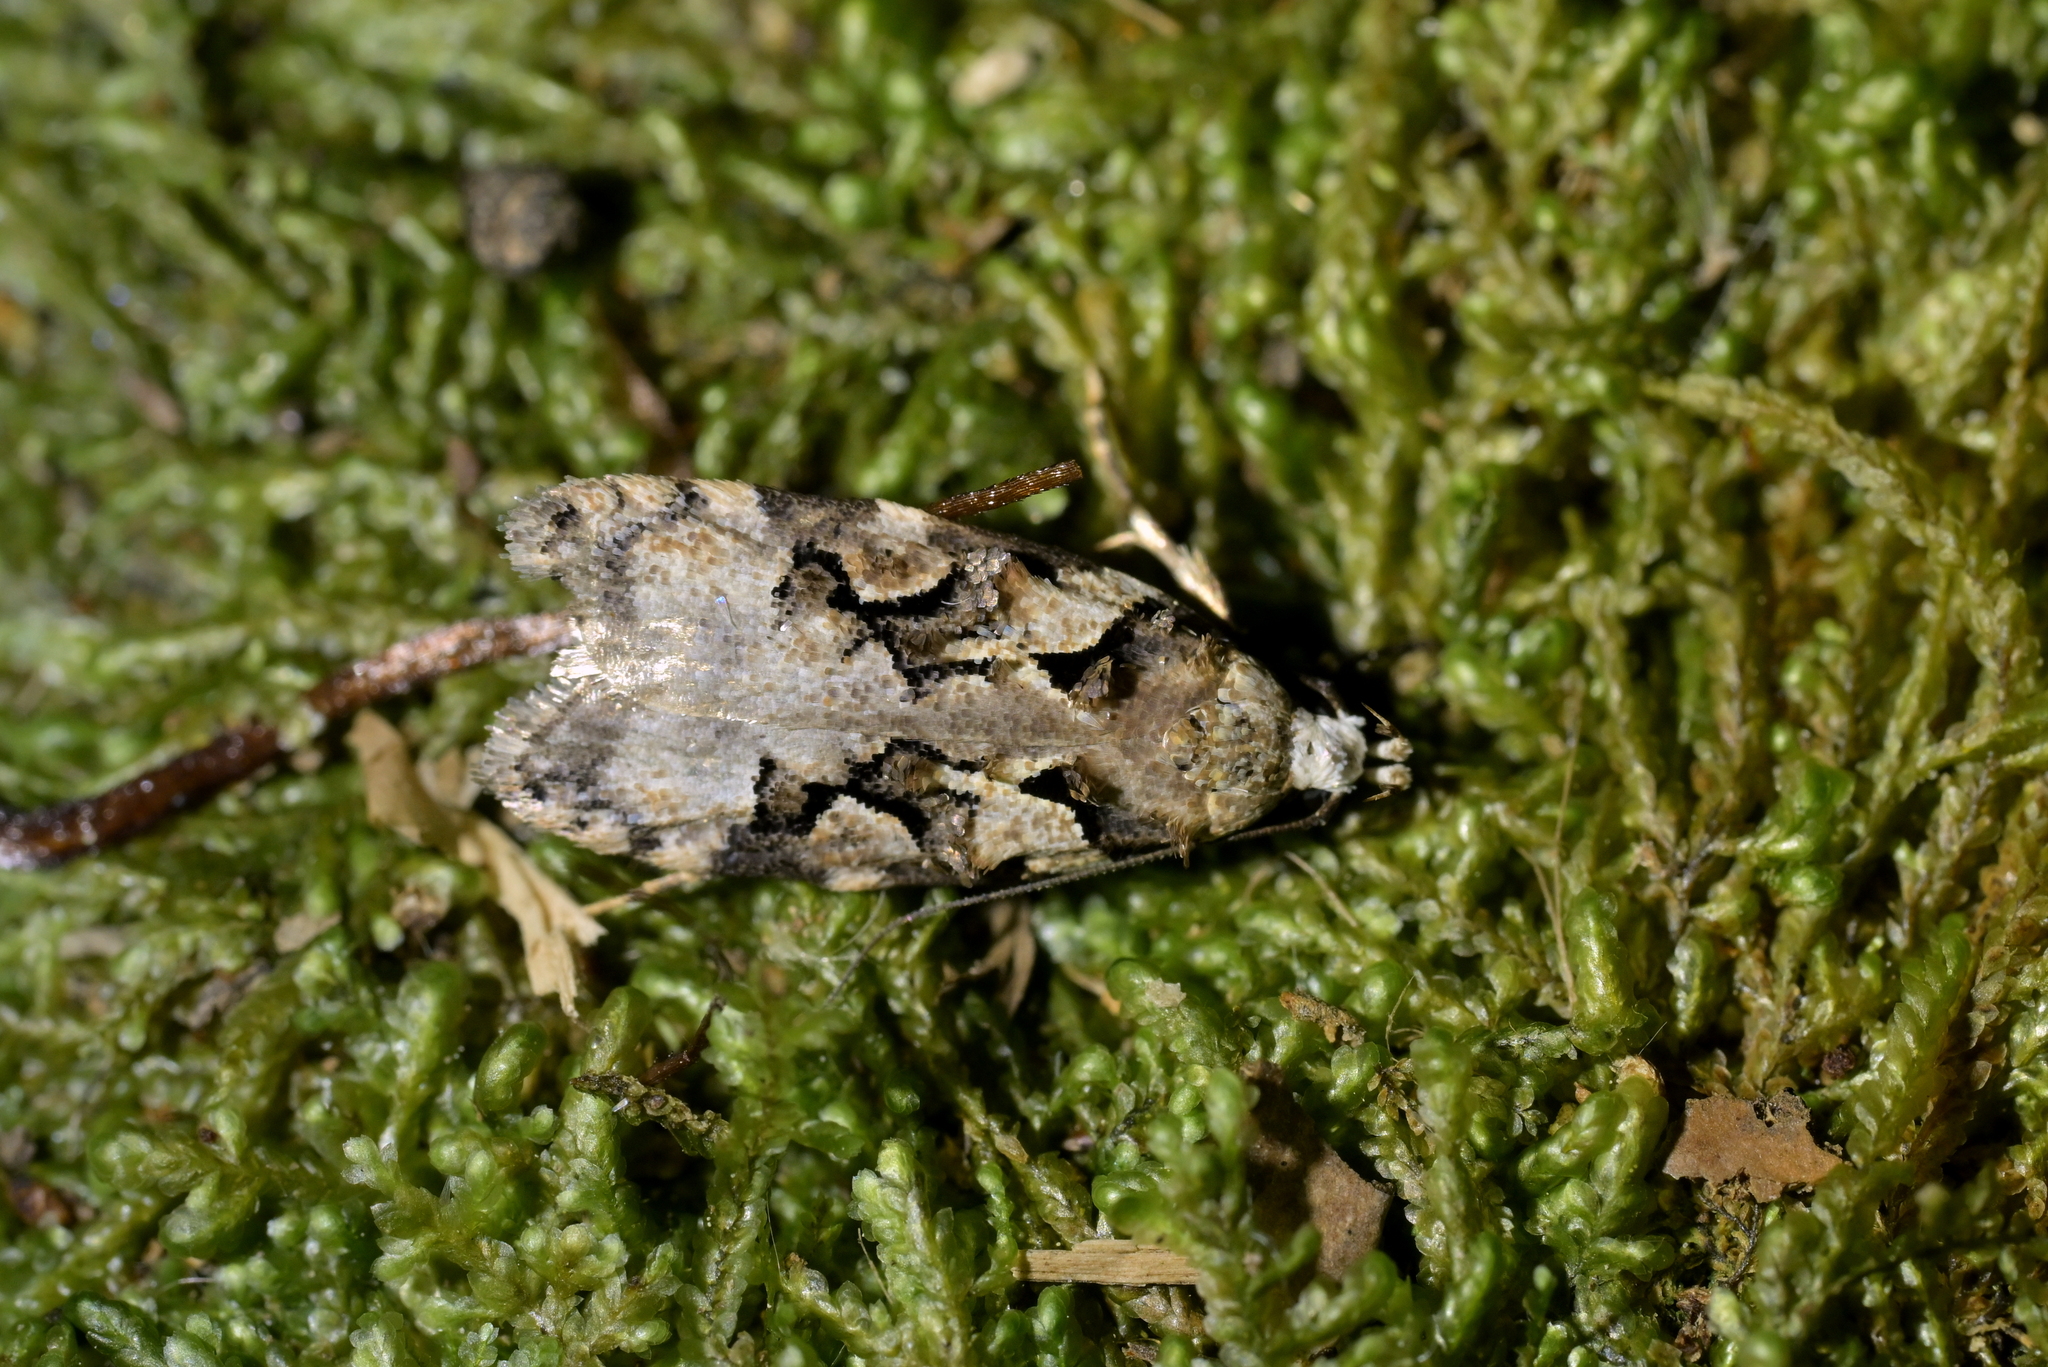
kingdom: Animalia
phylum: Arthropoda
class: Insecta
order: Lepidoptera
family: Oecophoridae
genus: Izatha
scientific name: Izatha epiphanes
